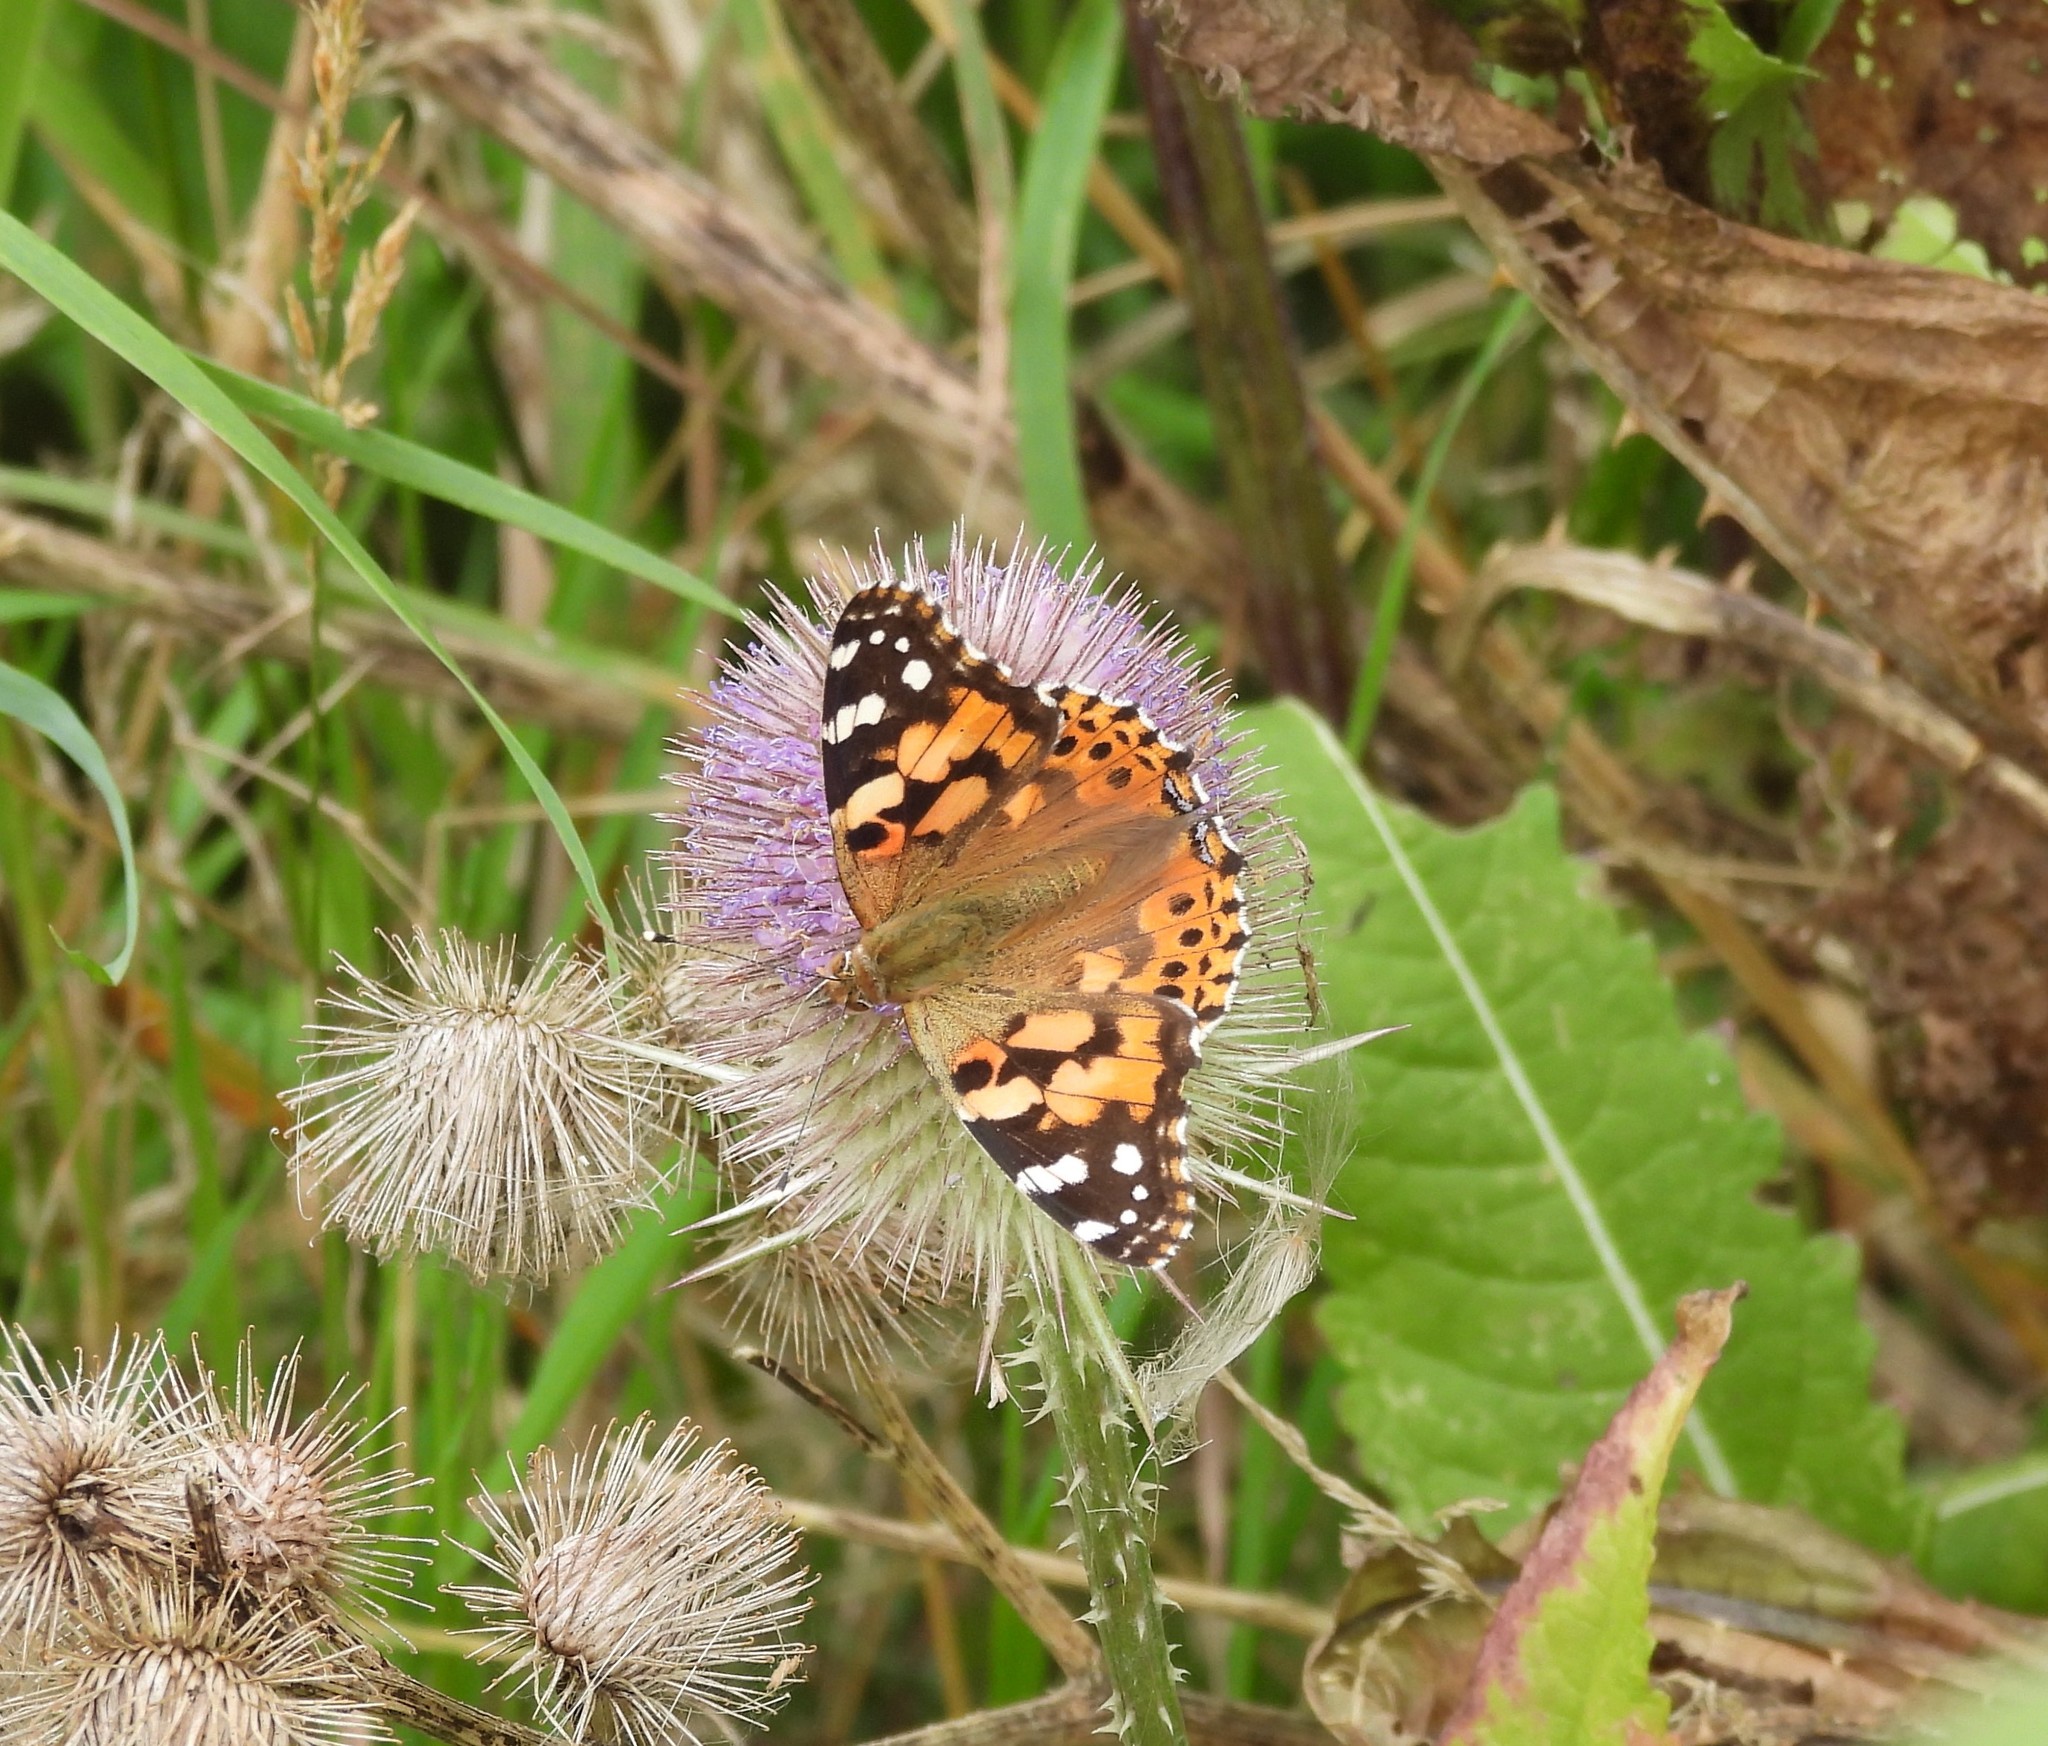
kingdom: Animalia
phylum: Arthropoda
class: Insecta
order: Lepidoptera
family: Nymphalidae
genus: Vanessa
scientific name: Vanessa cardui
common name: Painted lady
